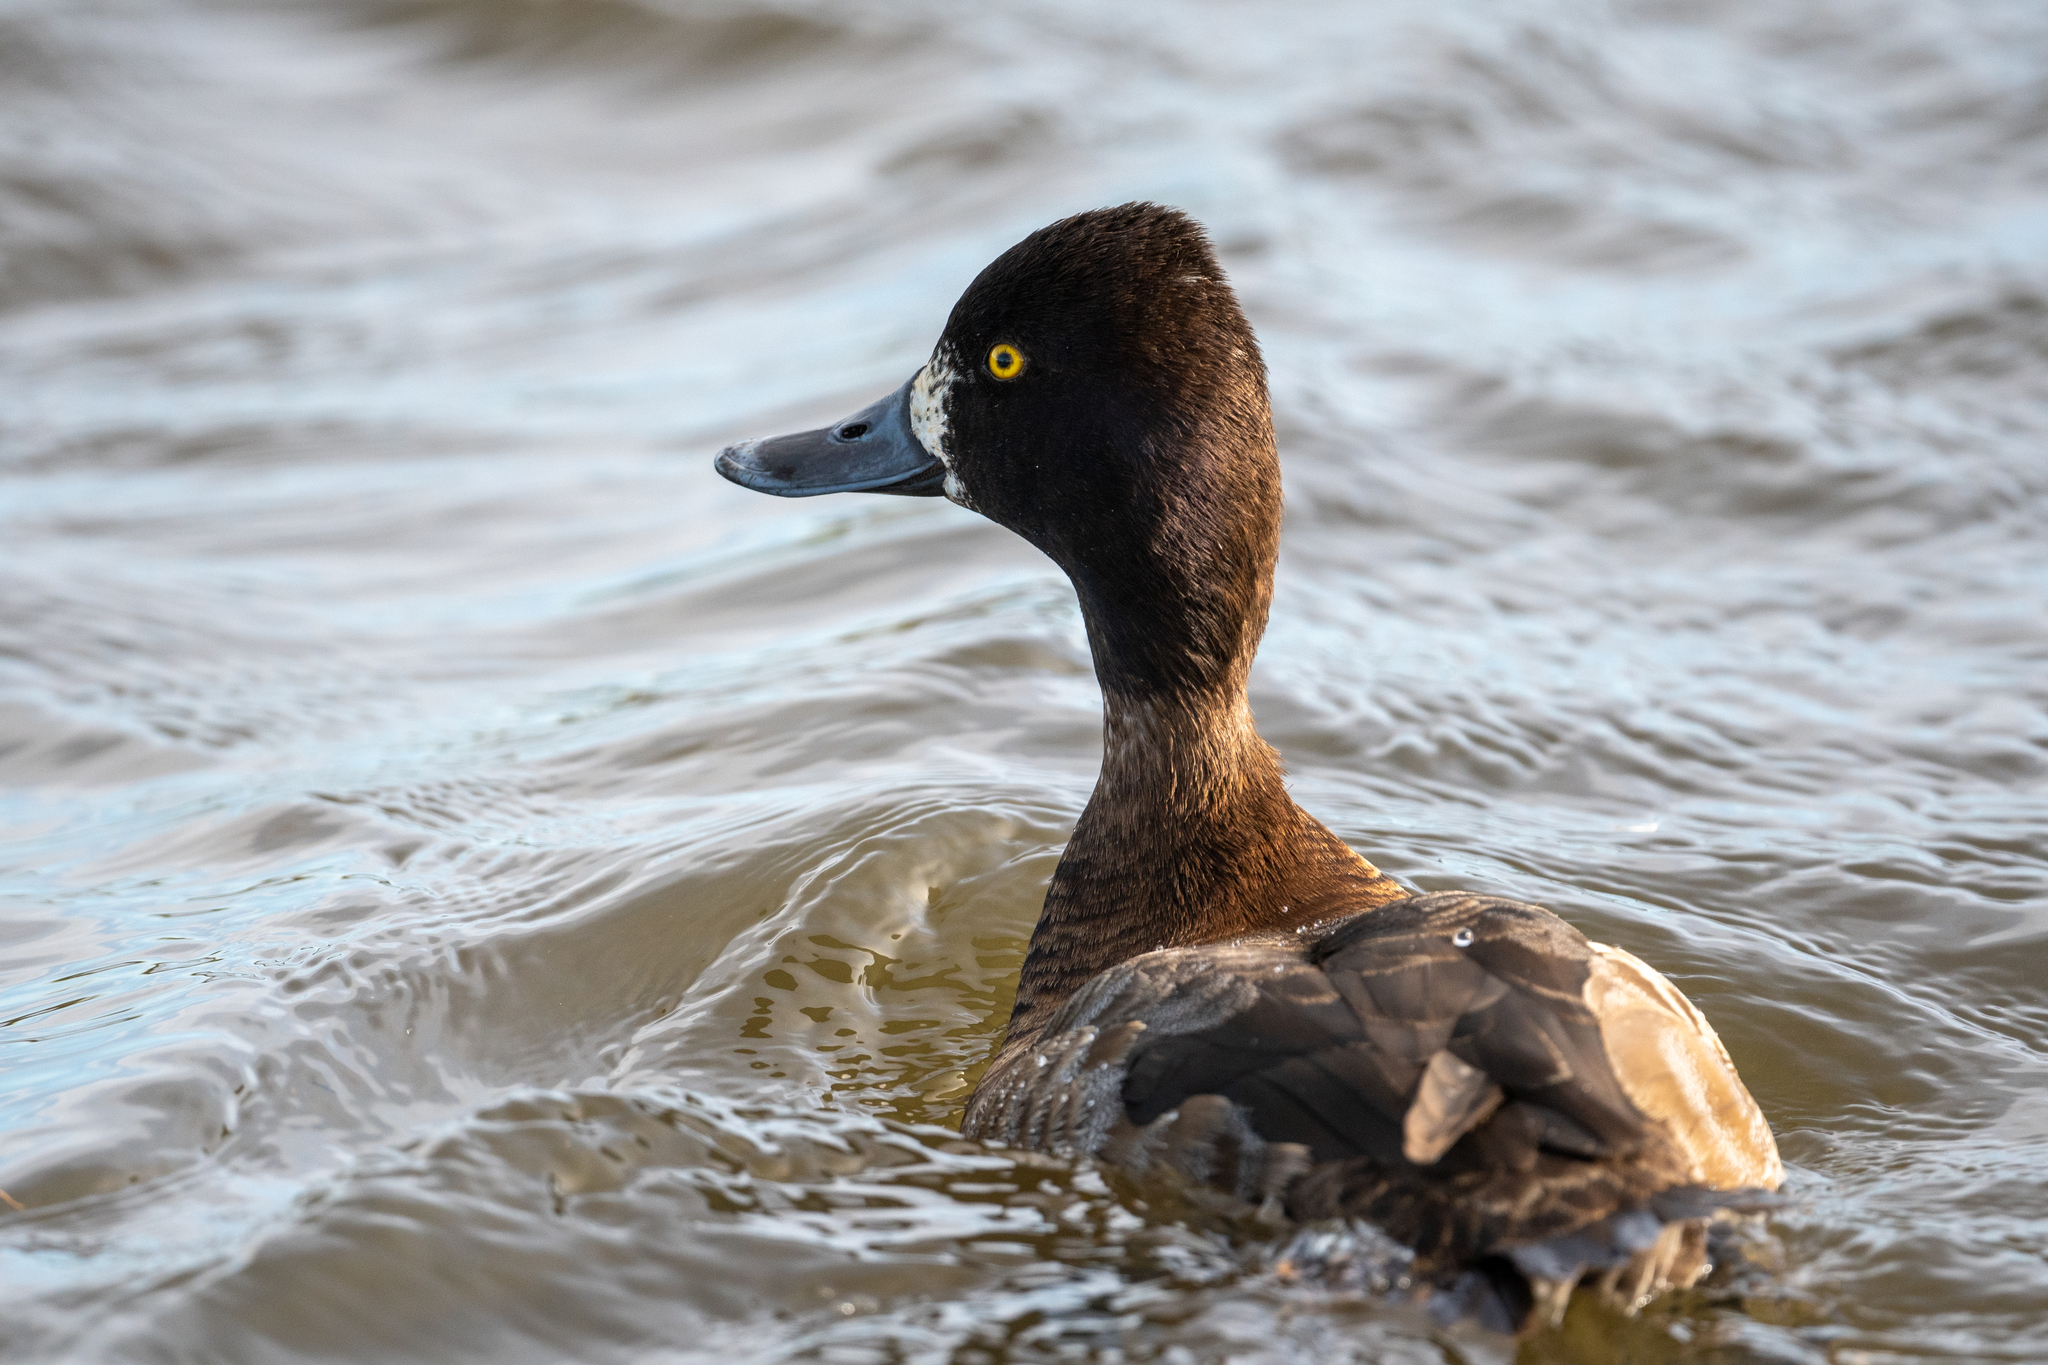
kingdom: Animalia
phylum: Chordata
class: Aves
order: Anseriformes
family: Anatidae
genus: Aythya
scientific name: Aythya affinis
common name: Lesser scaup
